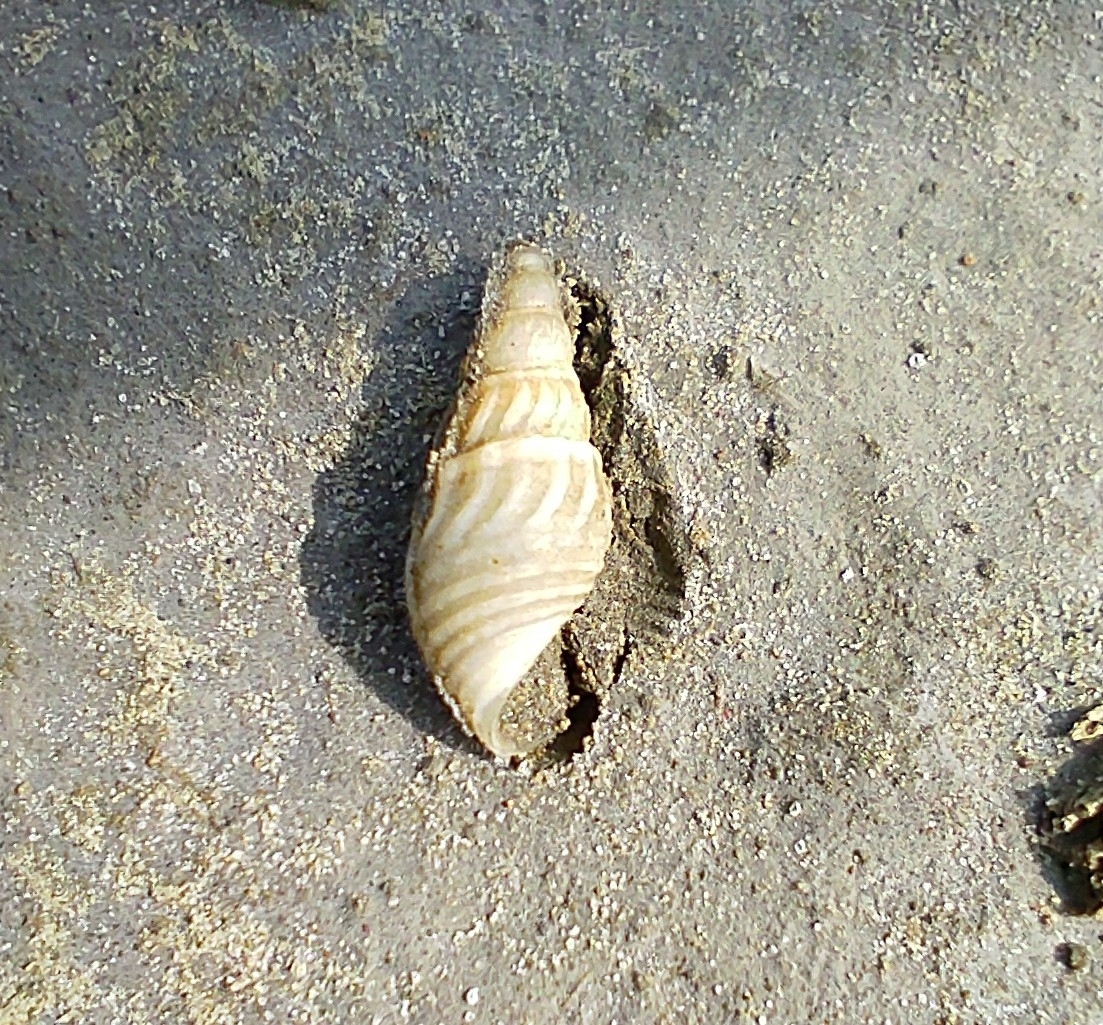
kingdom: Animalia
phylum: Mollusca
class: Gastropoda
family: Thiaridae
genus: Sermyla
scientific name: Sermyla riquetii
